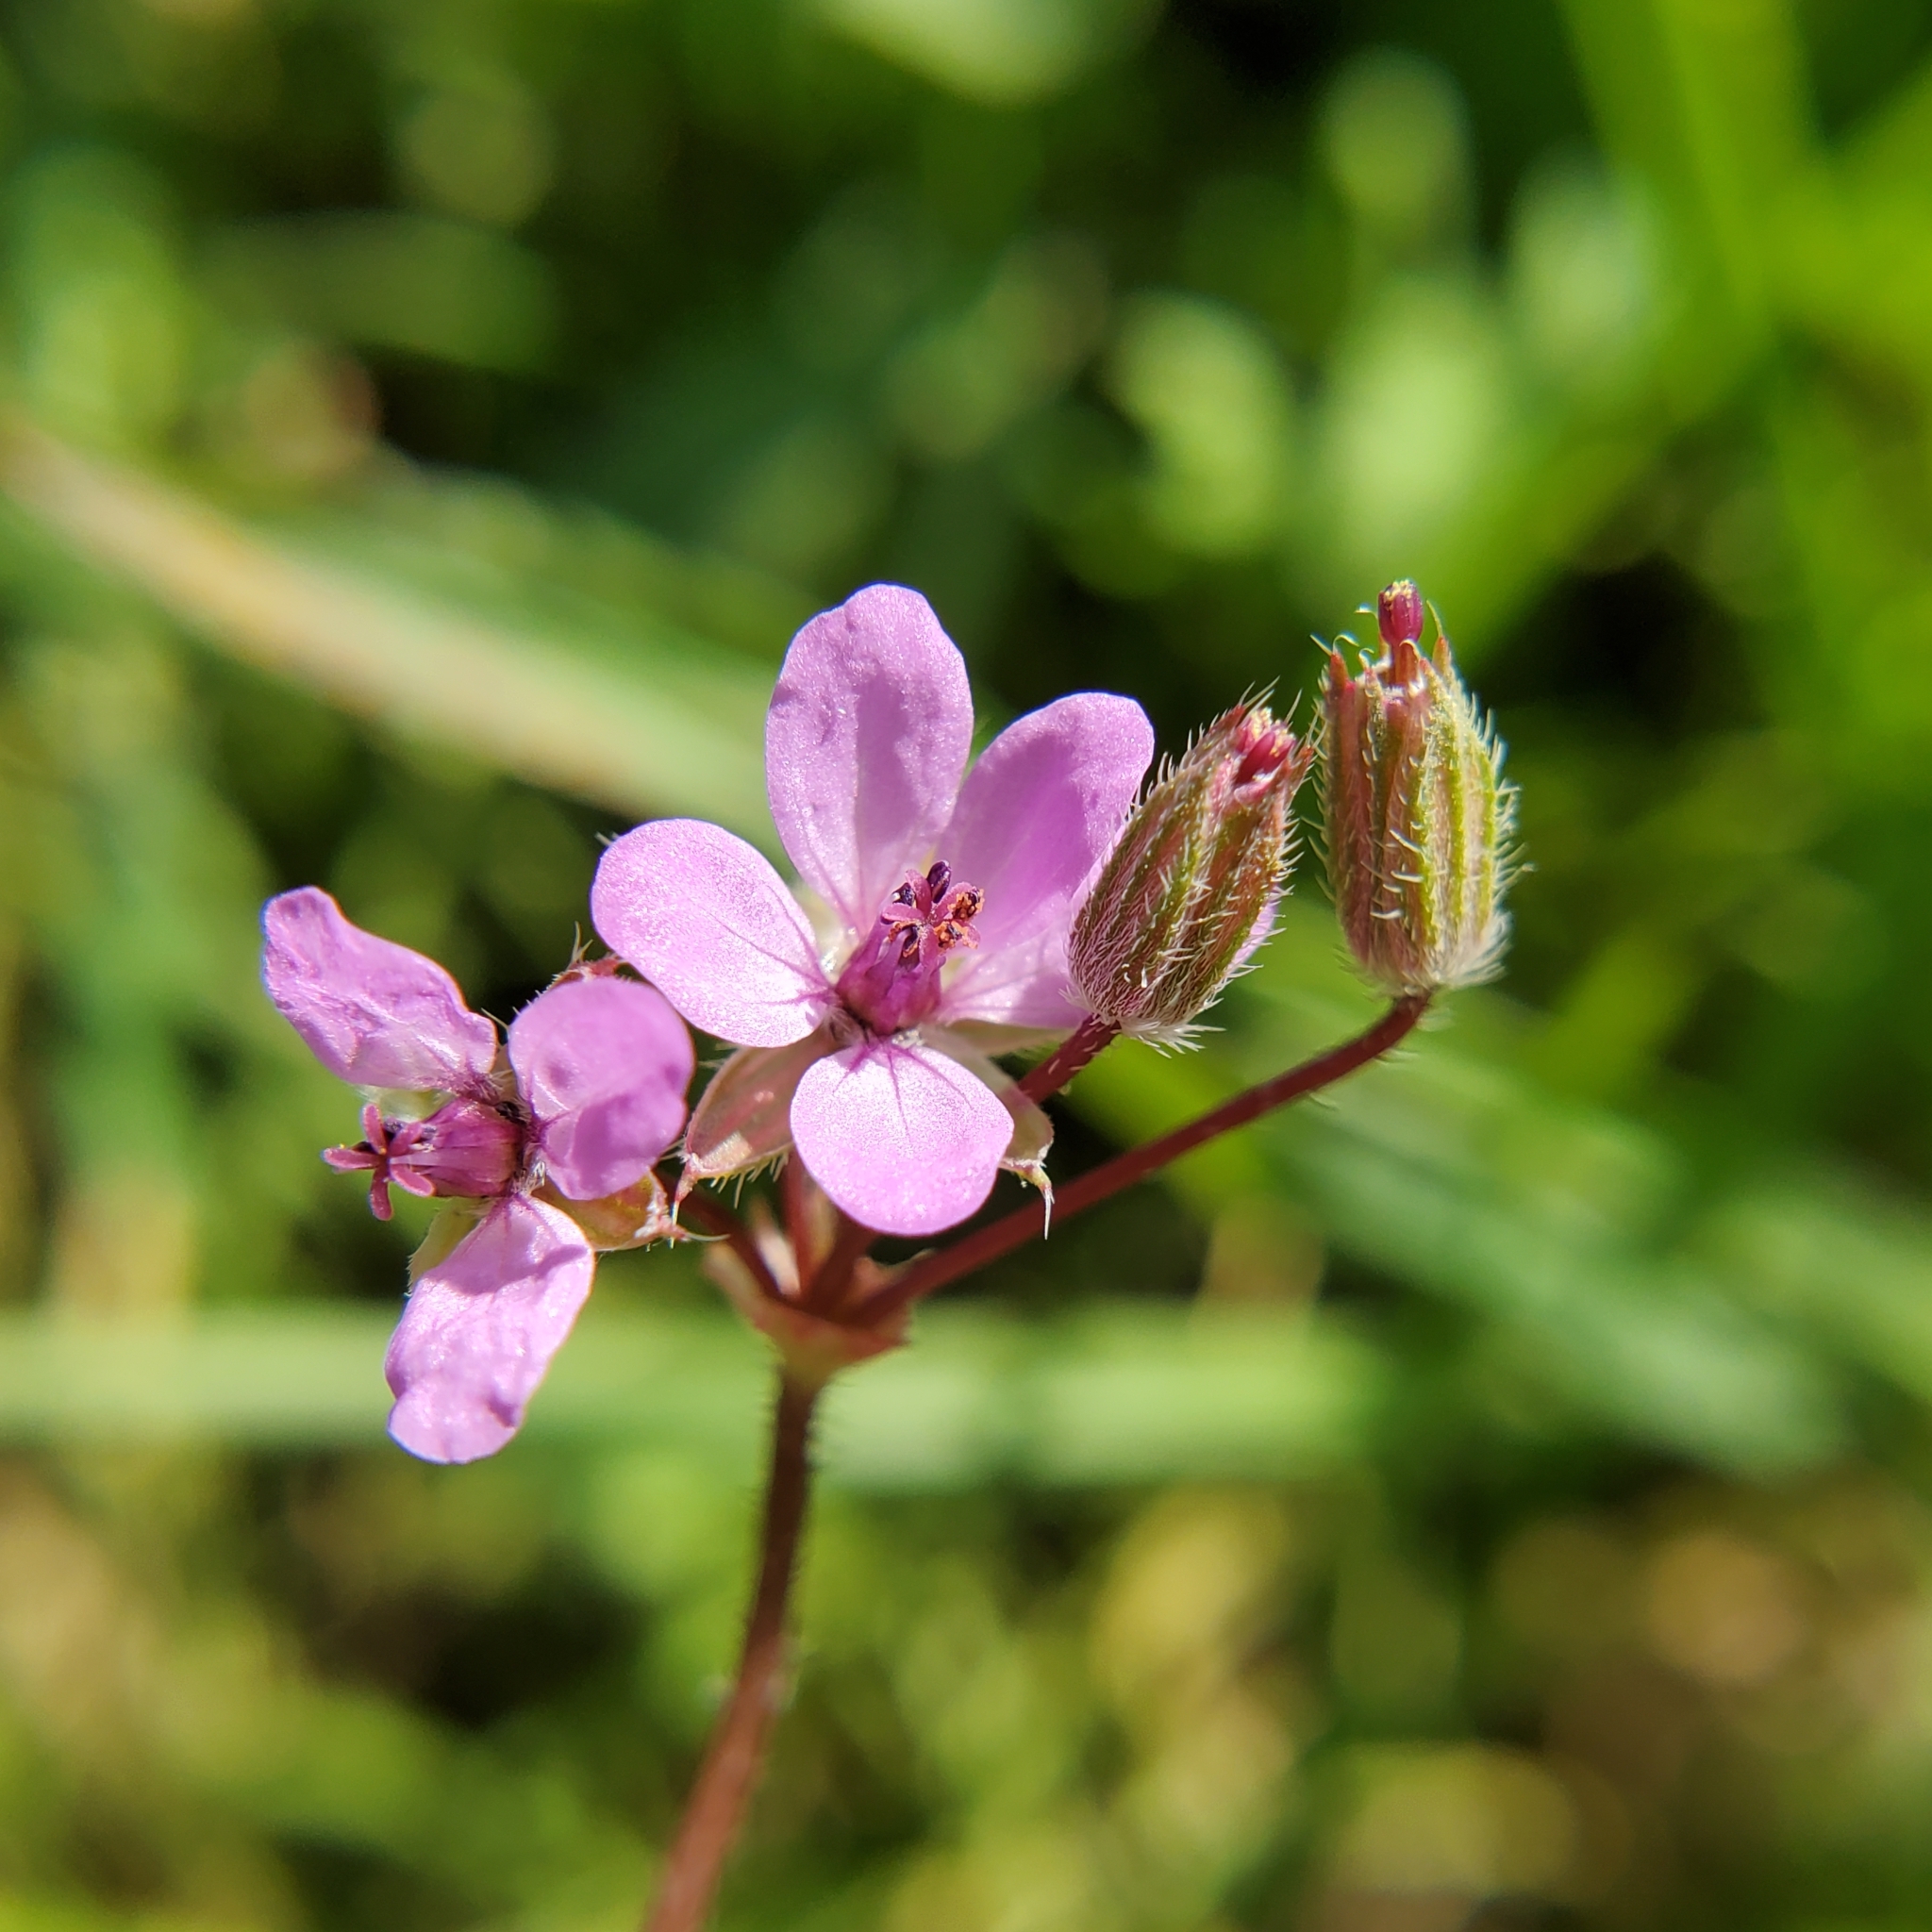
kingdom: Plantae
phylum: Tracheophyta
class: Magnoliopsida
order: Geraniales
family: Geraniaceae
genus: Erodium
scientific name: Erodium cicutarium
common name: Common stork's-bill
